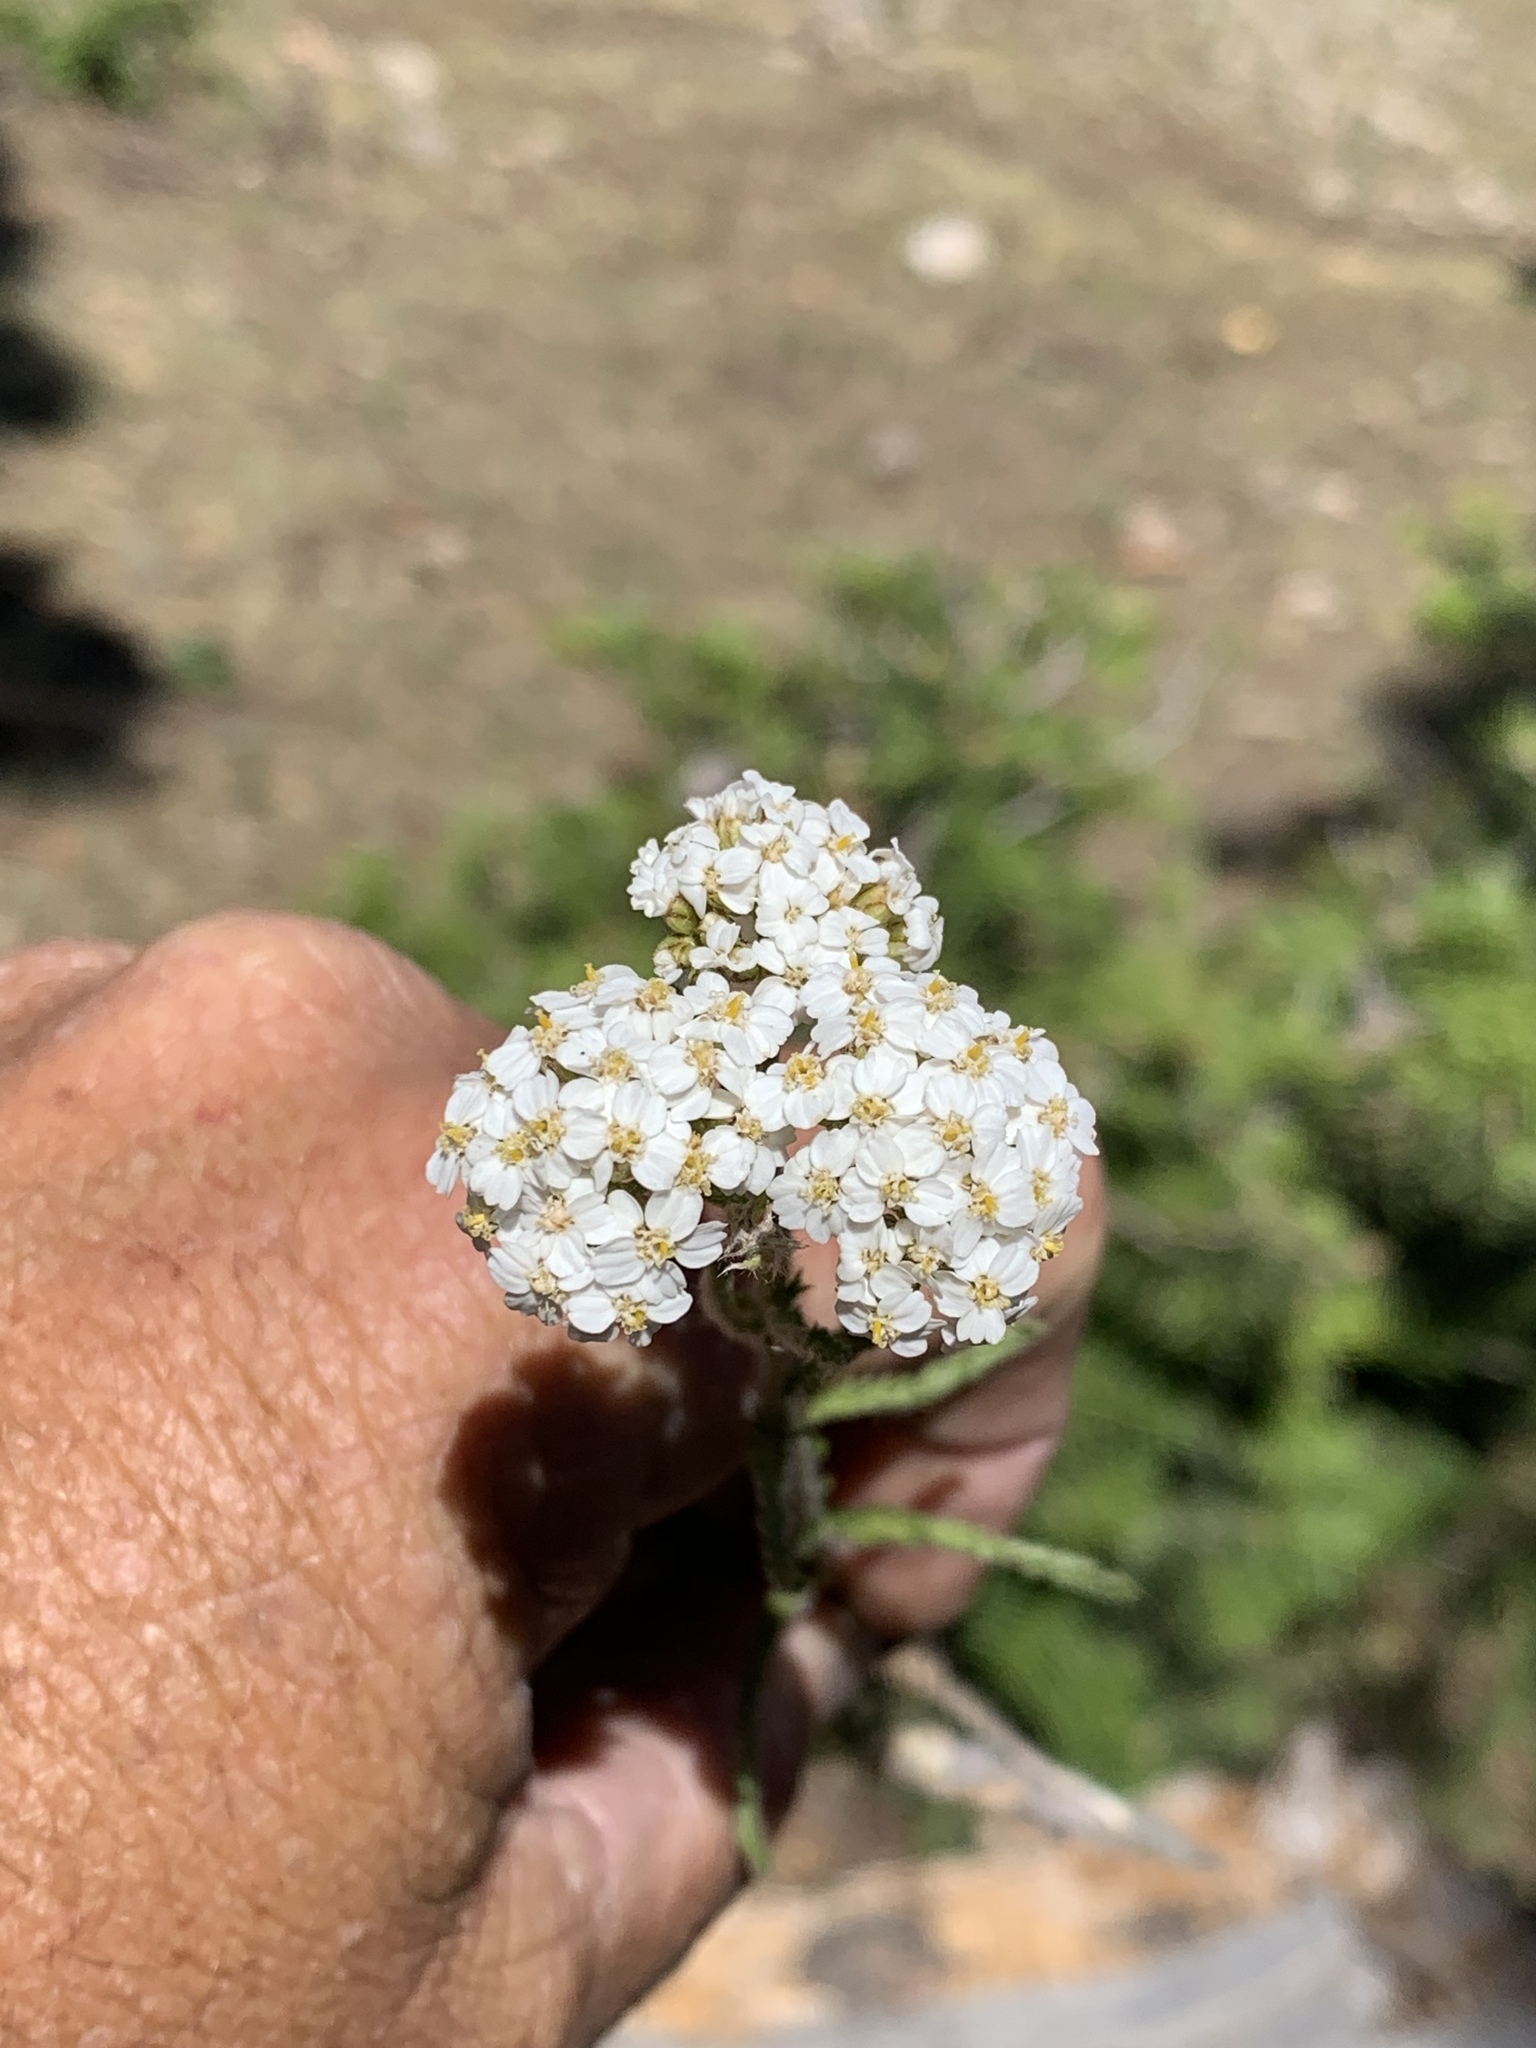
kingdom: Plantae
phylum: Tracheophyta
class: Magnoliopsida
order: Asterales
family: Asteraceae
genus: Achillea
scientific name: Achillea millefolium
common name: Yarrow
